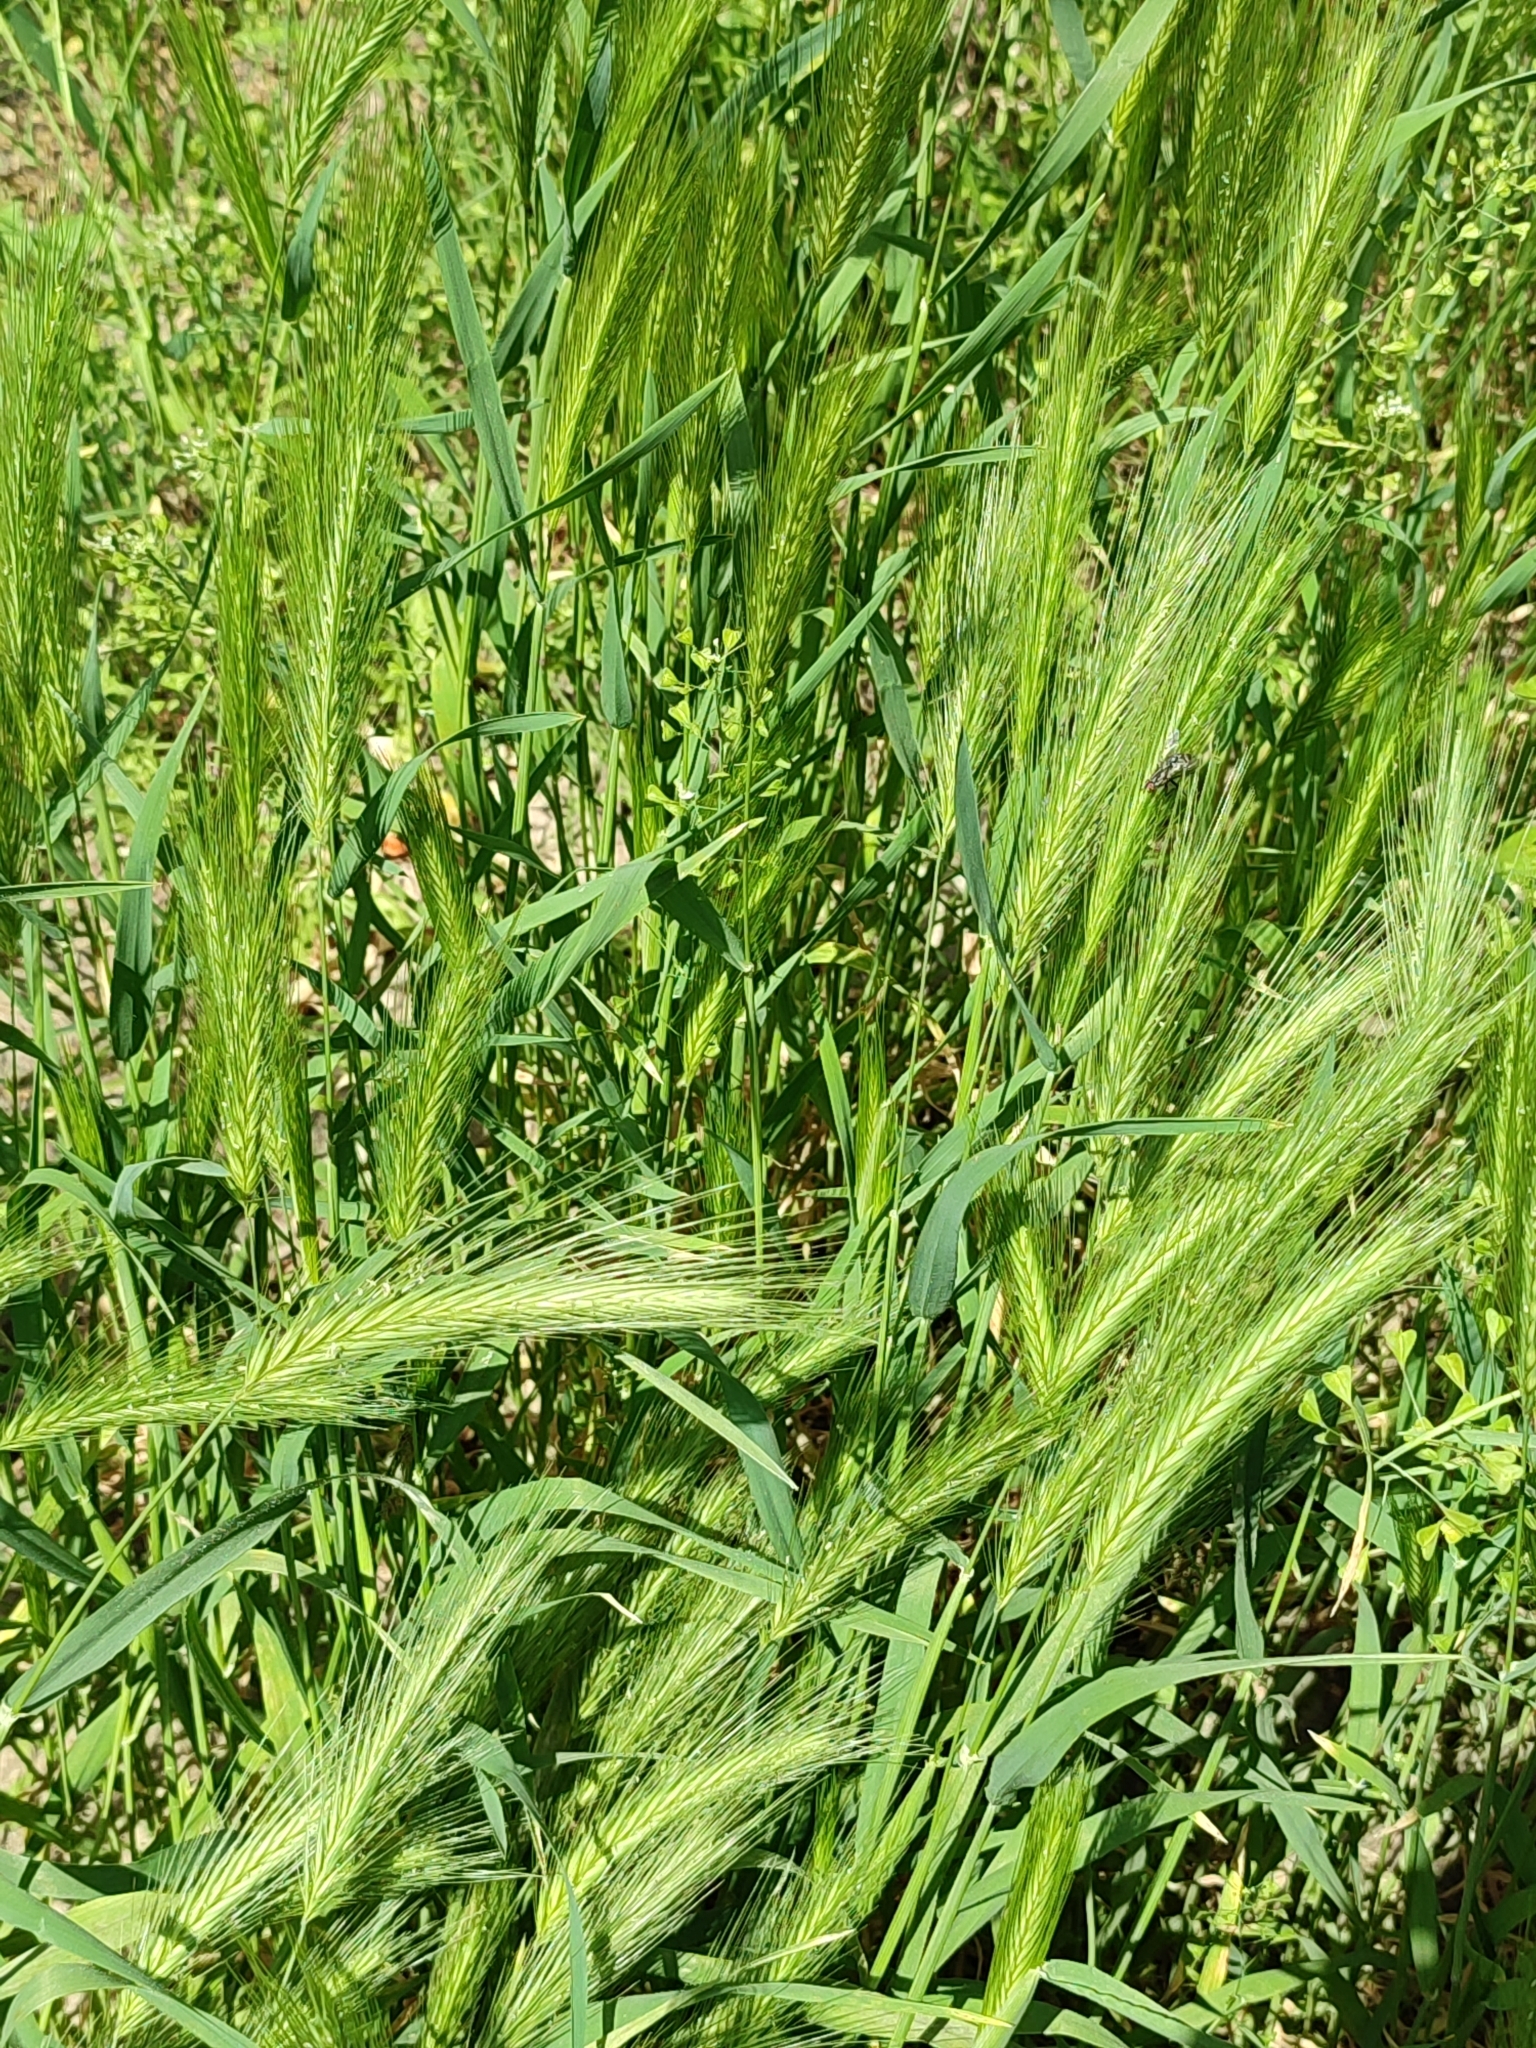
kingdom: Plantae
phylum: Tracheophyta
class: Liliopsida
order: Poales
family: Poaceae
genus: Hordeum
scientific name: Hordeum murinum
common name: Wall barley
